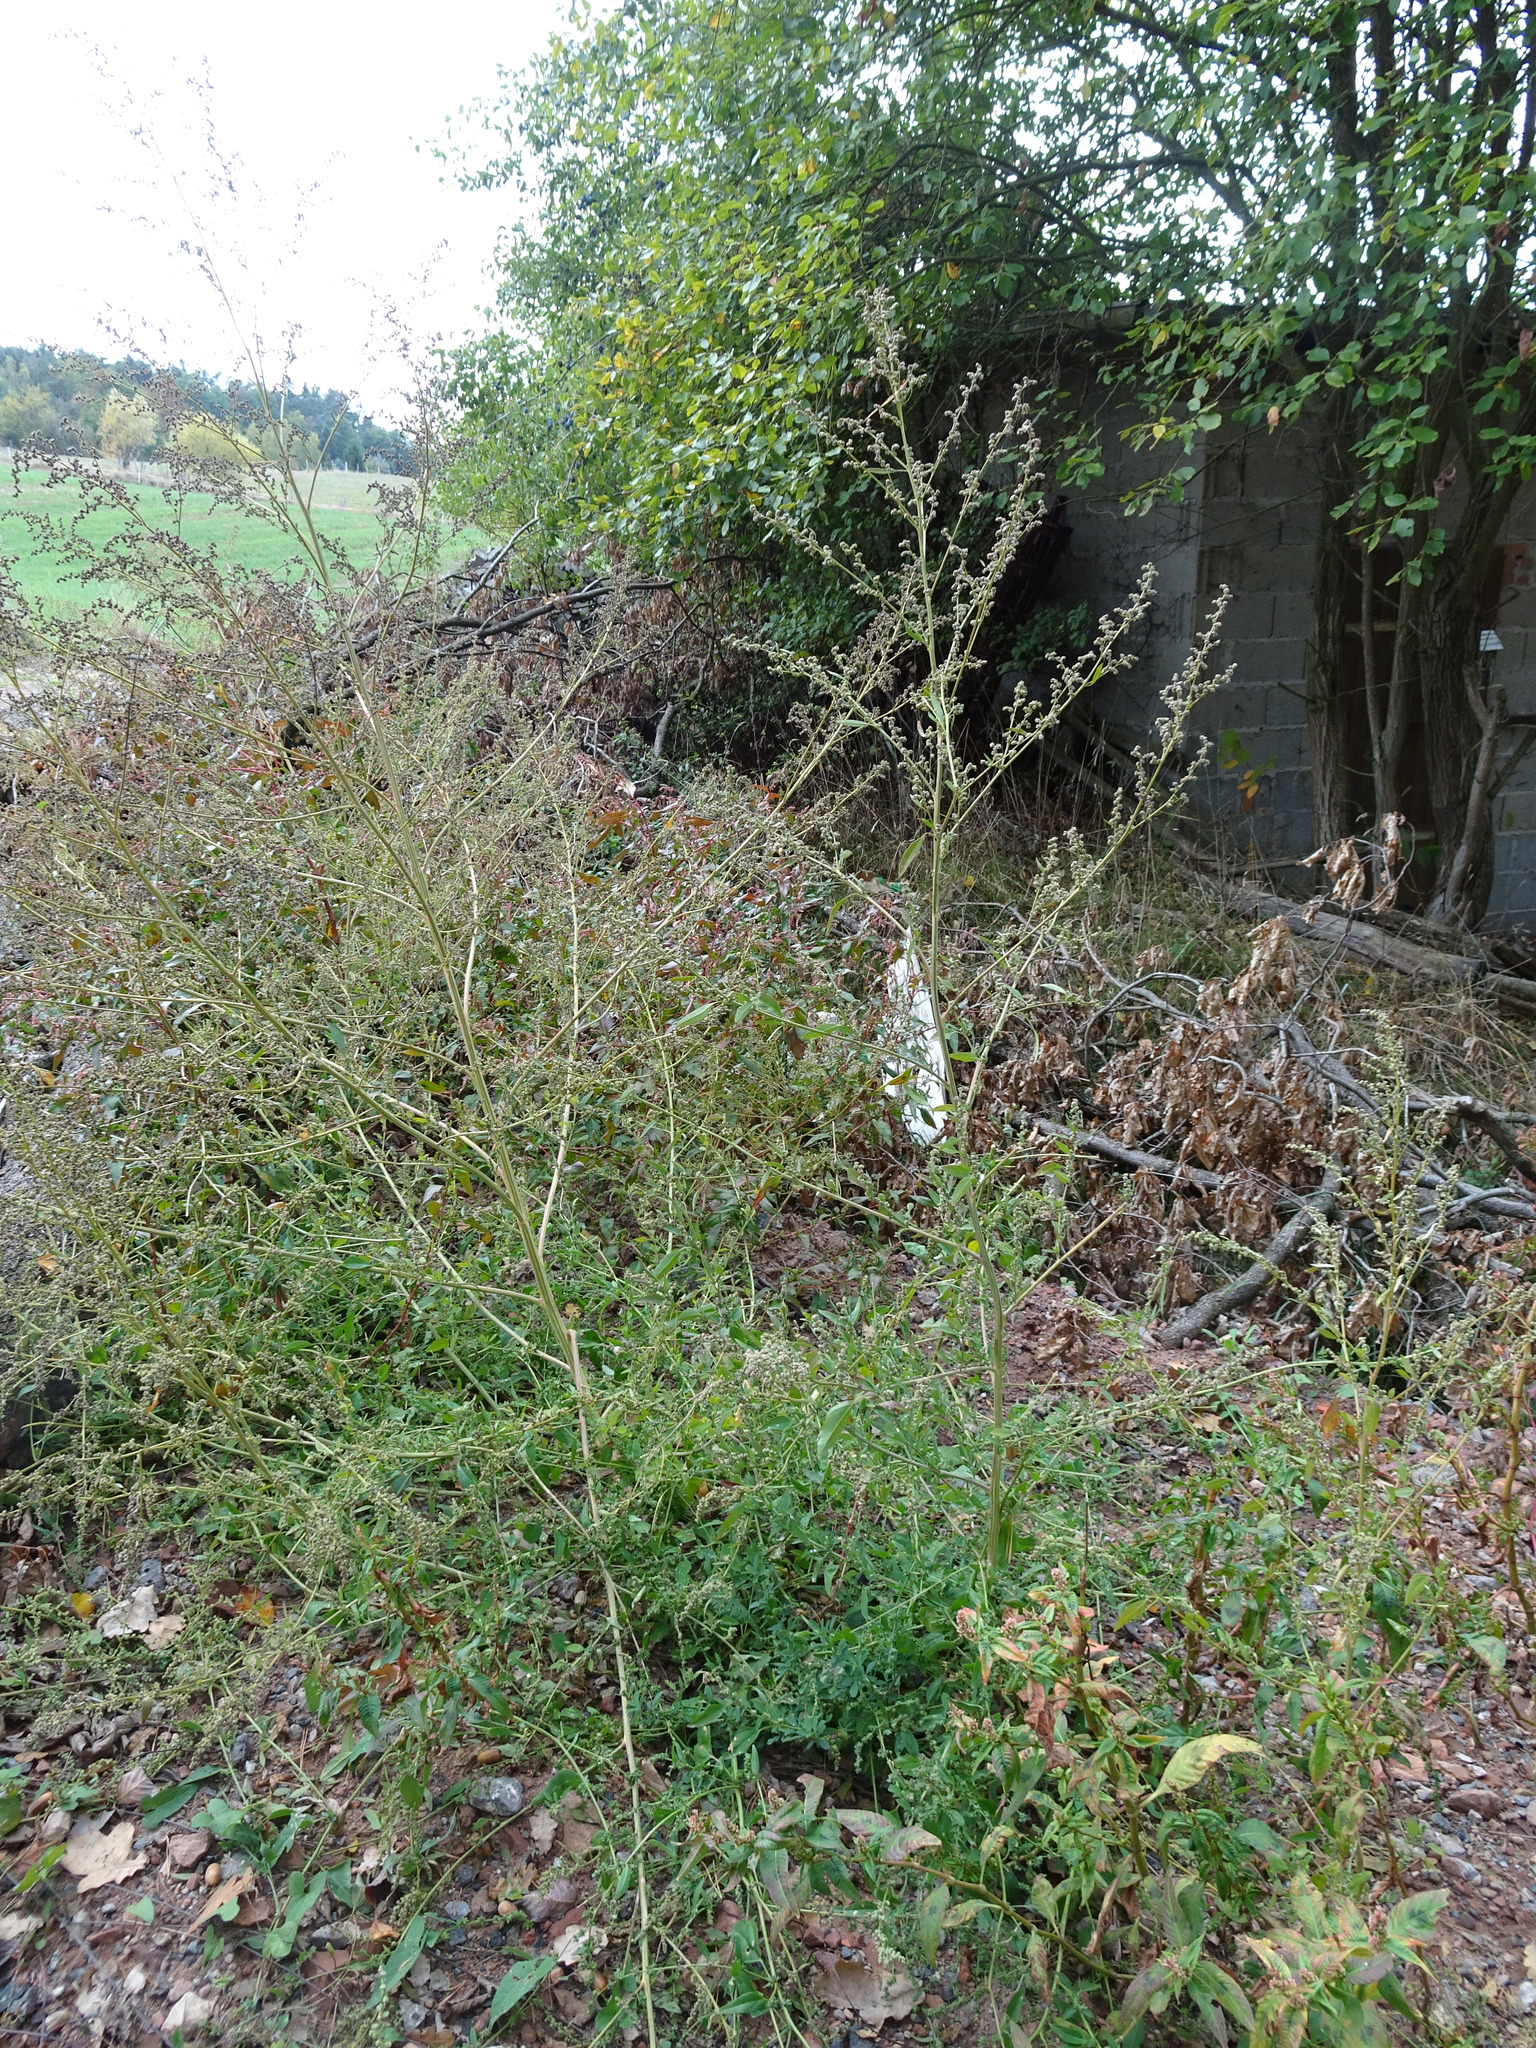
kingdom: Plantae
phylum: Tracheophyta
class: Magnoliopsida
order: Caryophyllales
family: Amaranthaceae
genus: Chenopodium
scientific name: Chenopodium album
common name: Fat-hen
